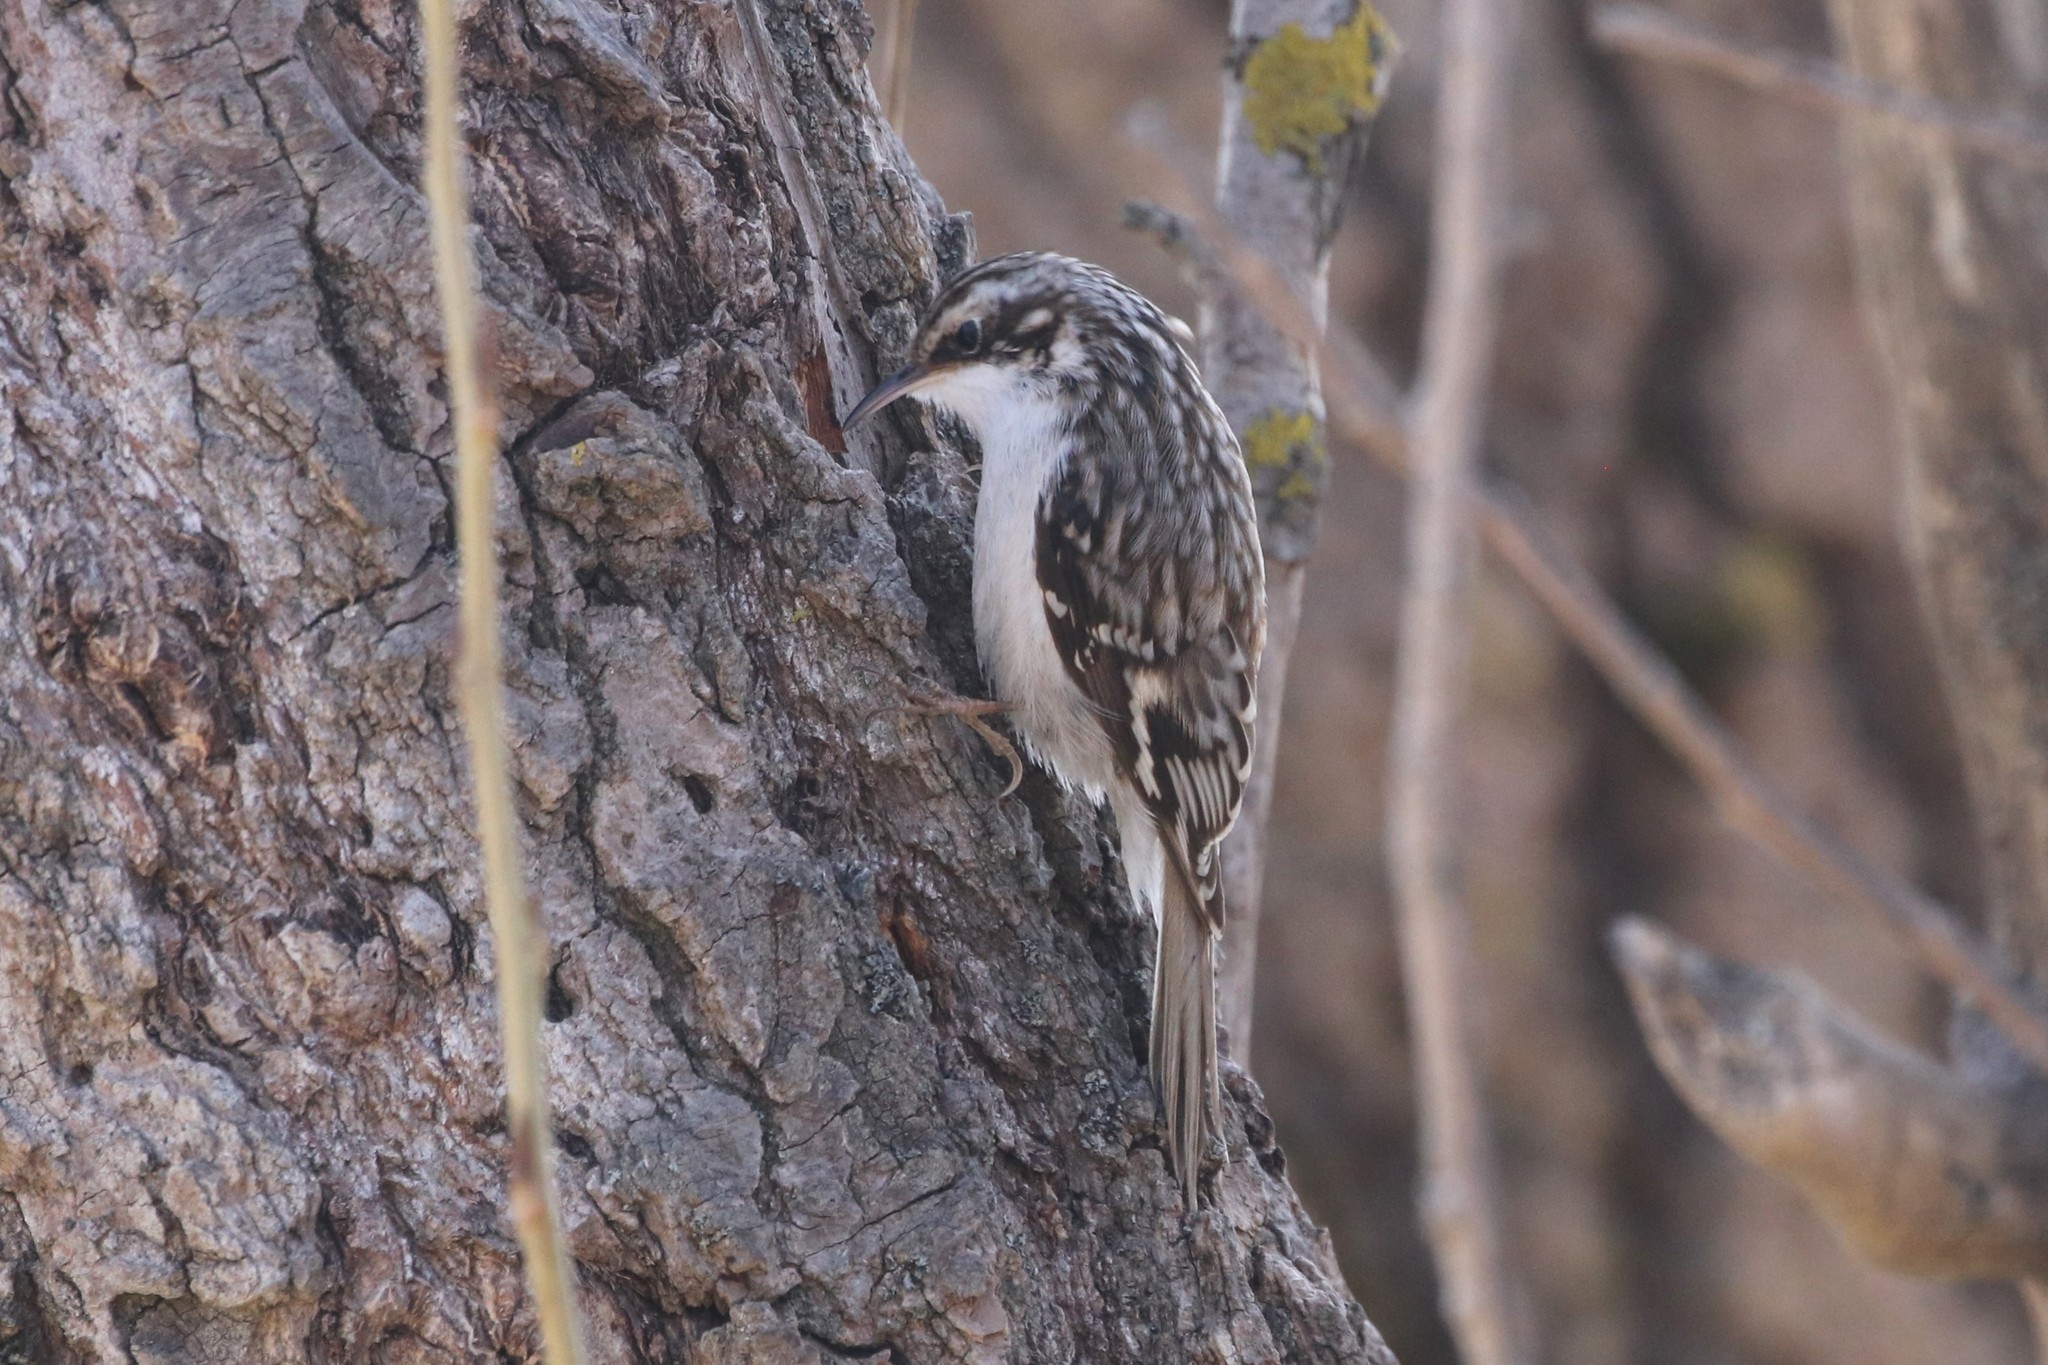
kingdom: Animalia
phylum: Chordata
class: Aves
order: Passeriformes
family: Certhiidae
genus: Certhia
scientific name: Certhia americana
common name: Brown creeper
